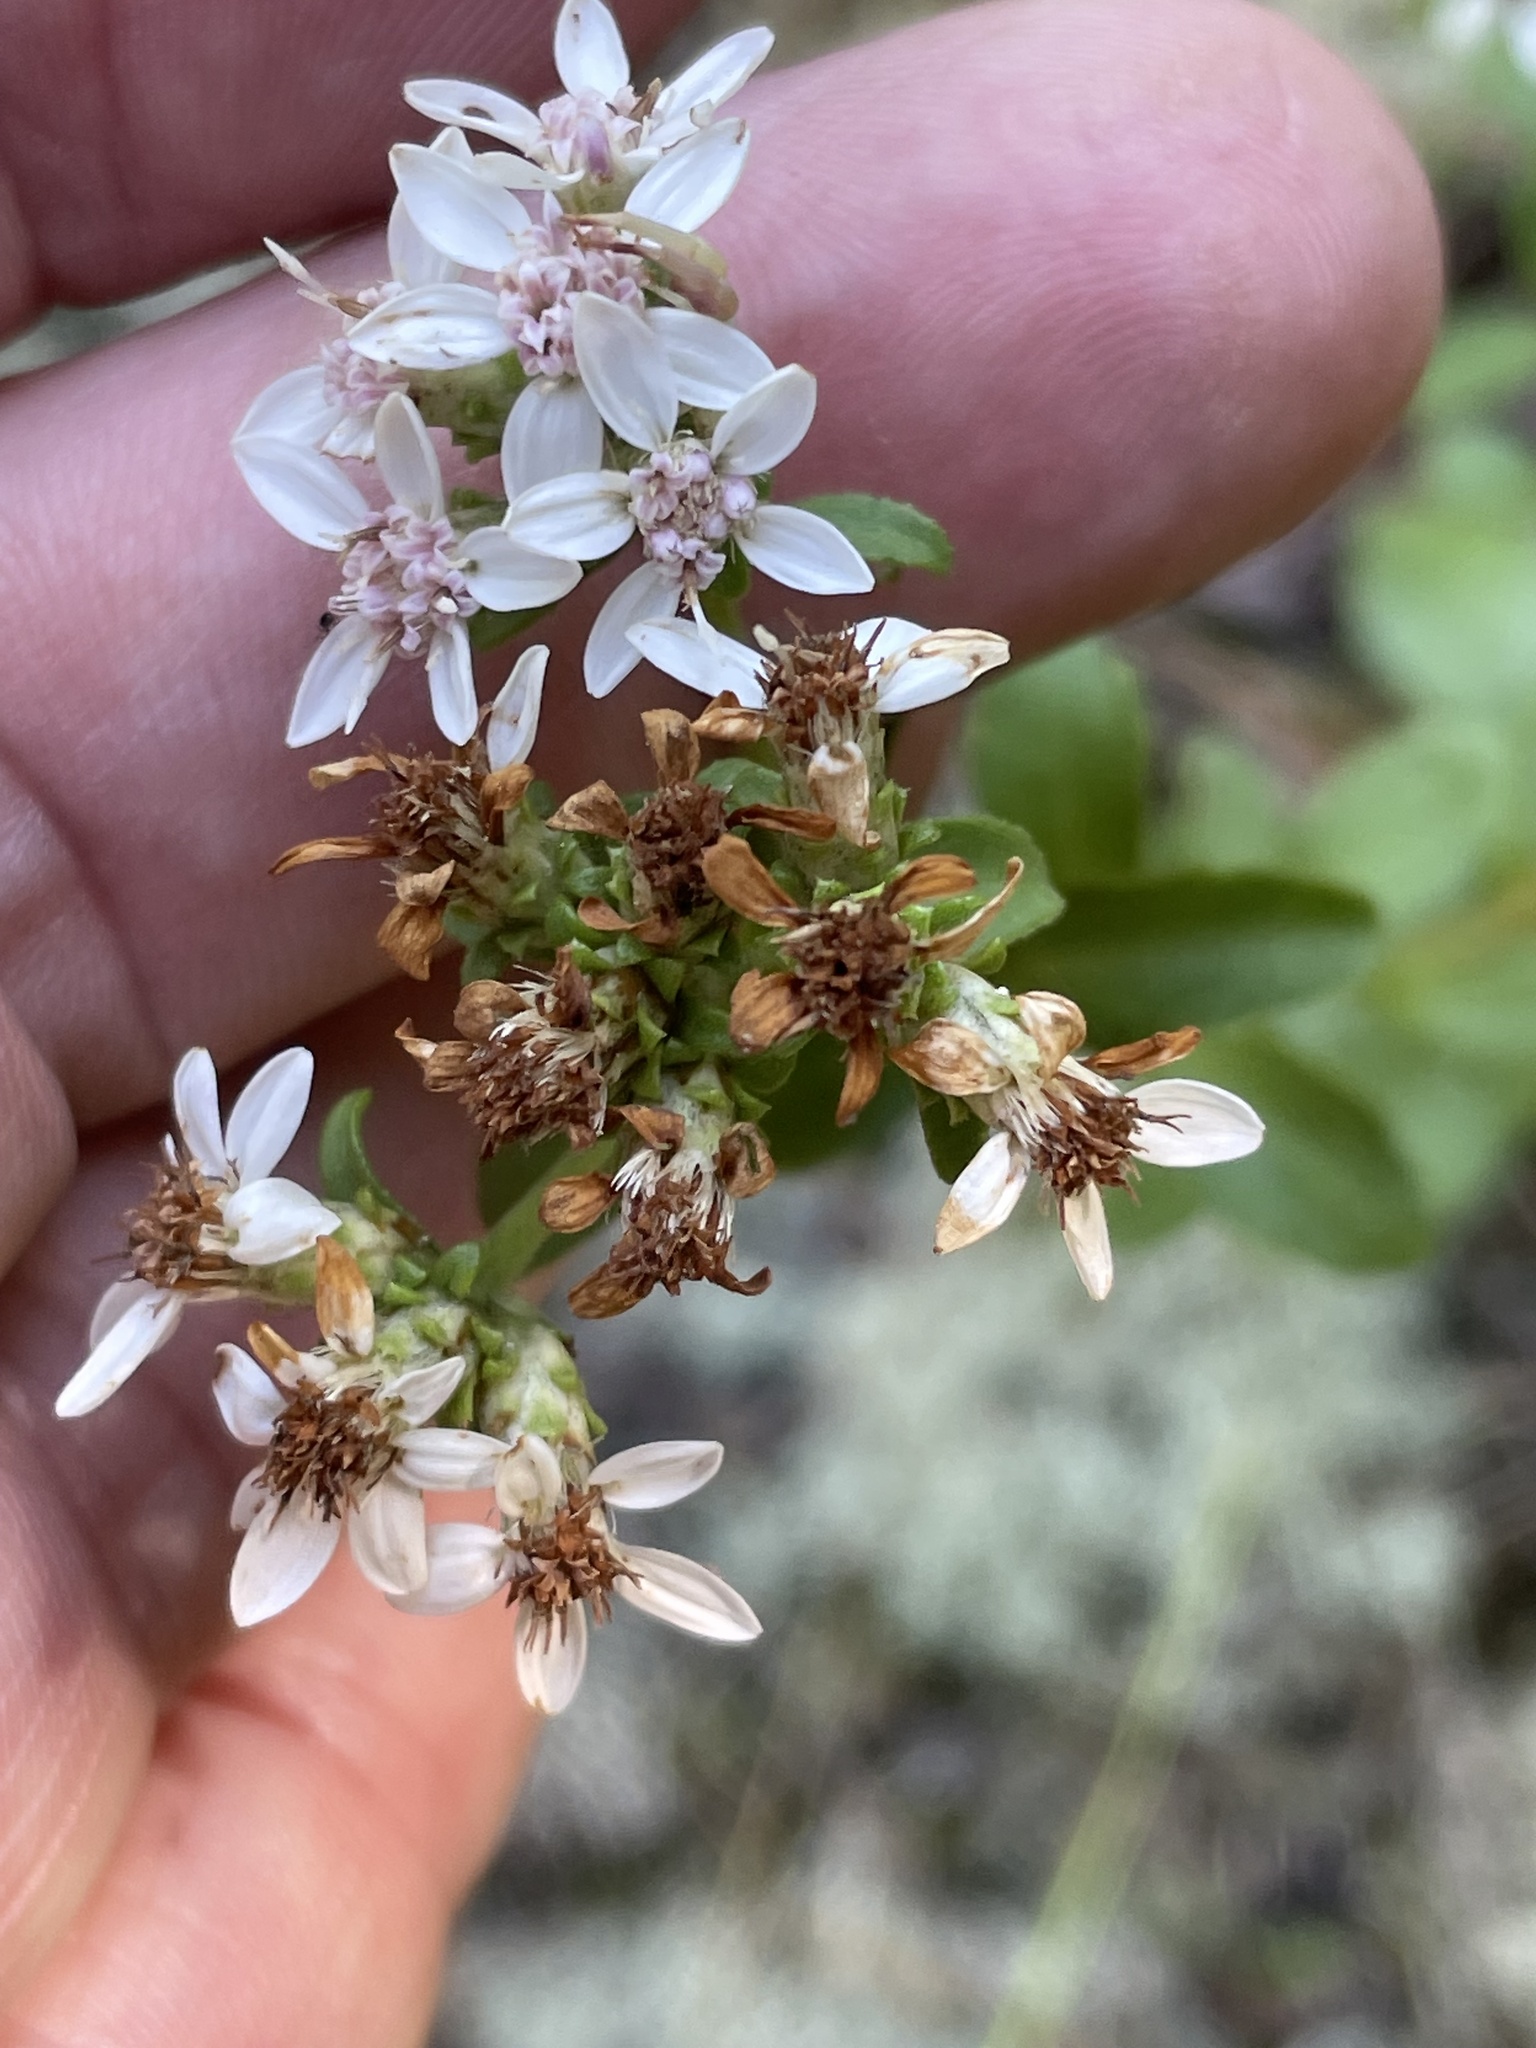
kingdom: Plantae
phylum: Tracheophyta
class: Magnoliopsida
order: Asterales
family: Asteraceae
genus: Sericocarpus
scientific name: Sericocarpus asteroides
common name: Toothed white-top aster
